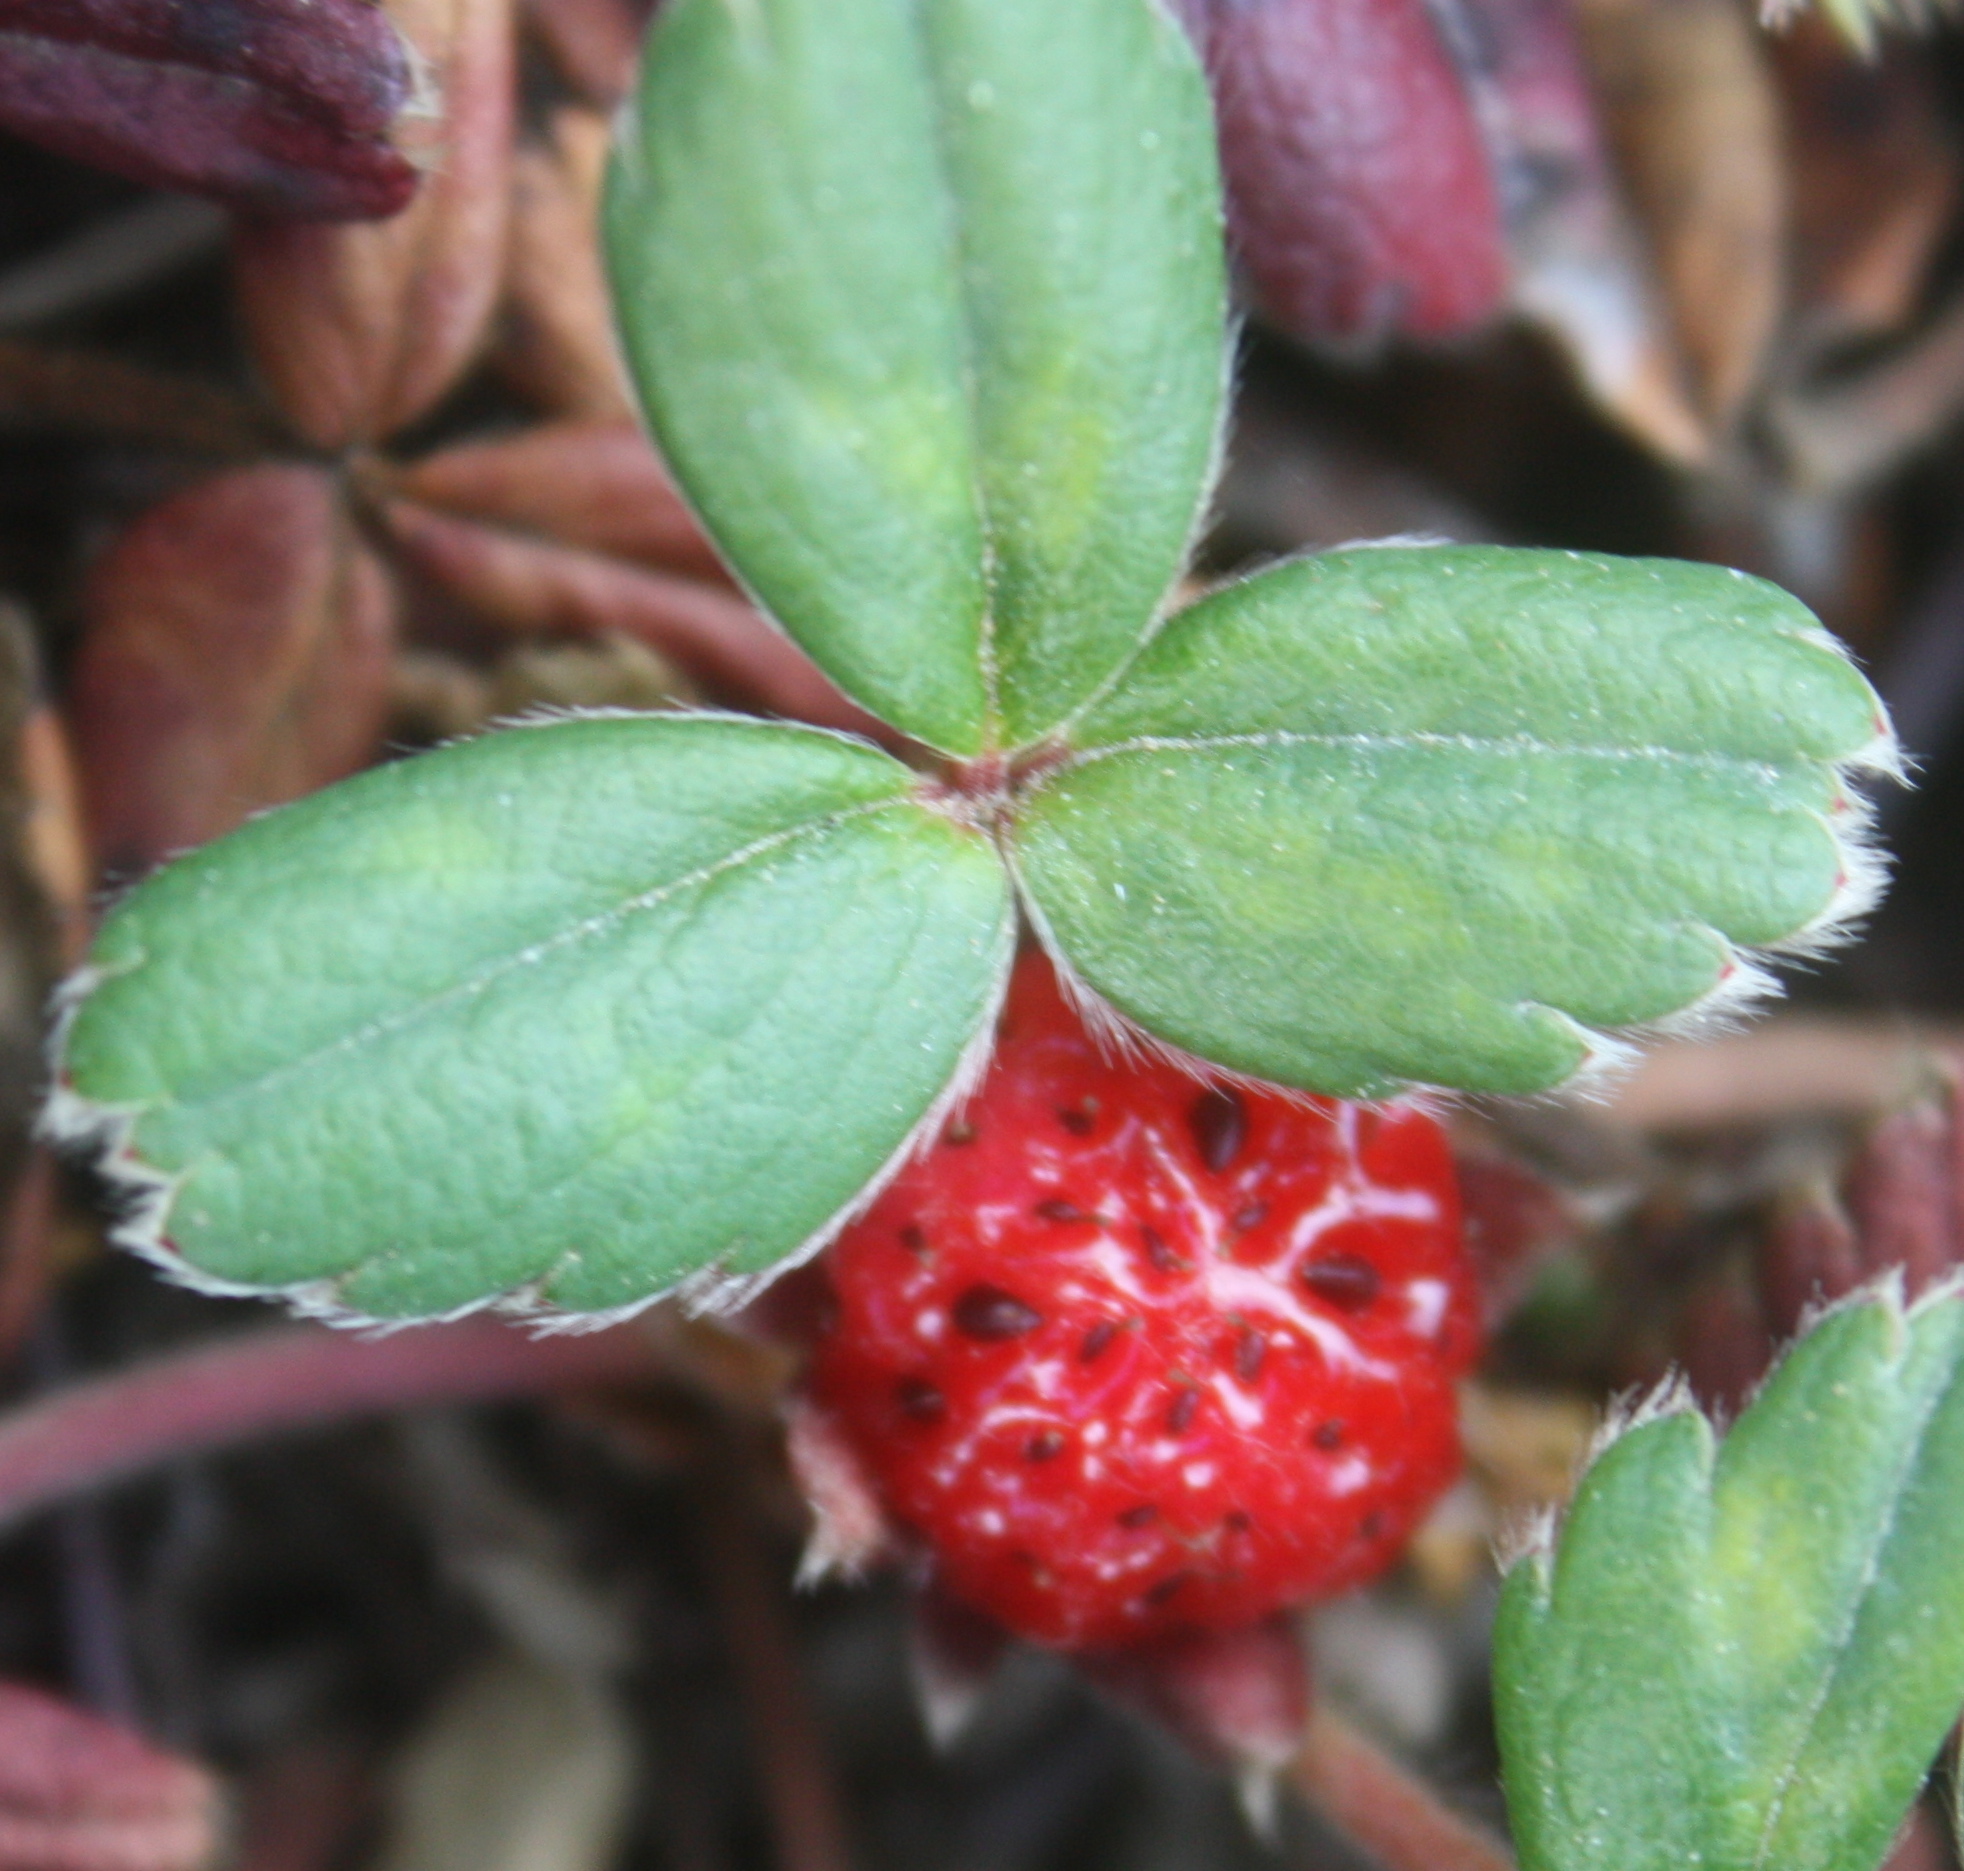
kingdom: Plantae
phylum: Tracheophyta
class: Magnoliopsida
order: Rosales
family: Rosaceae
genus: Fragaria
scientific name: Fragaria chiloensis
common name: Beach strawberry
